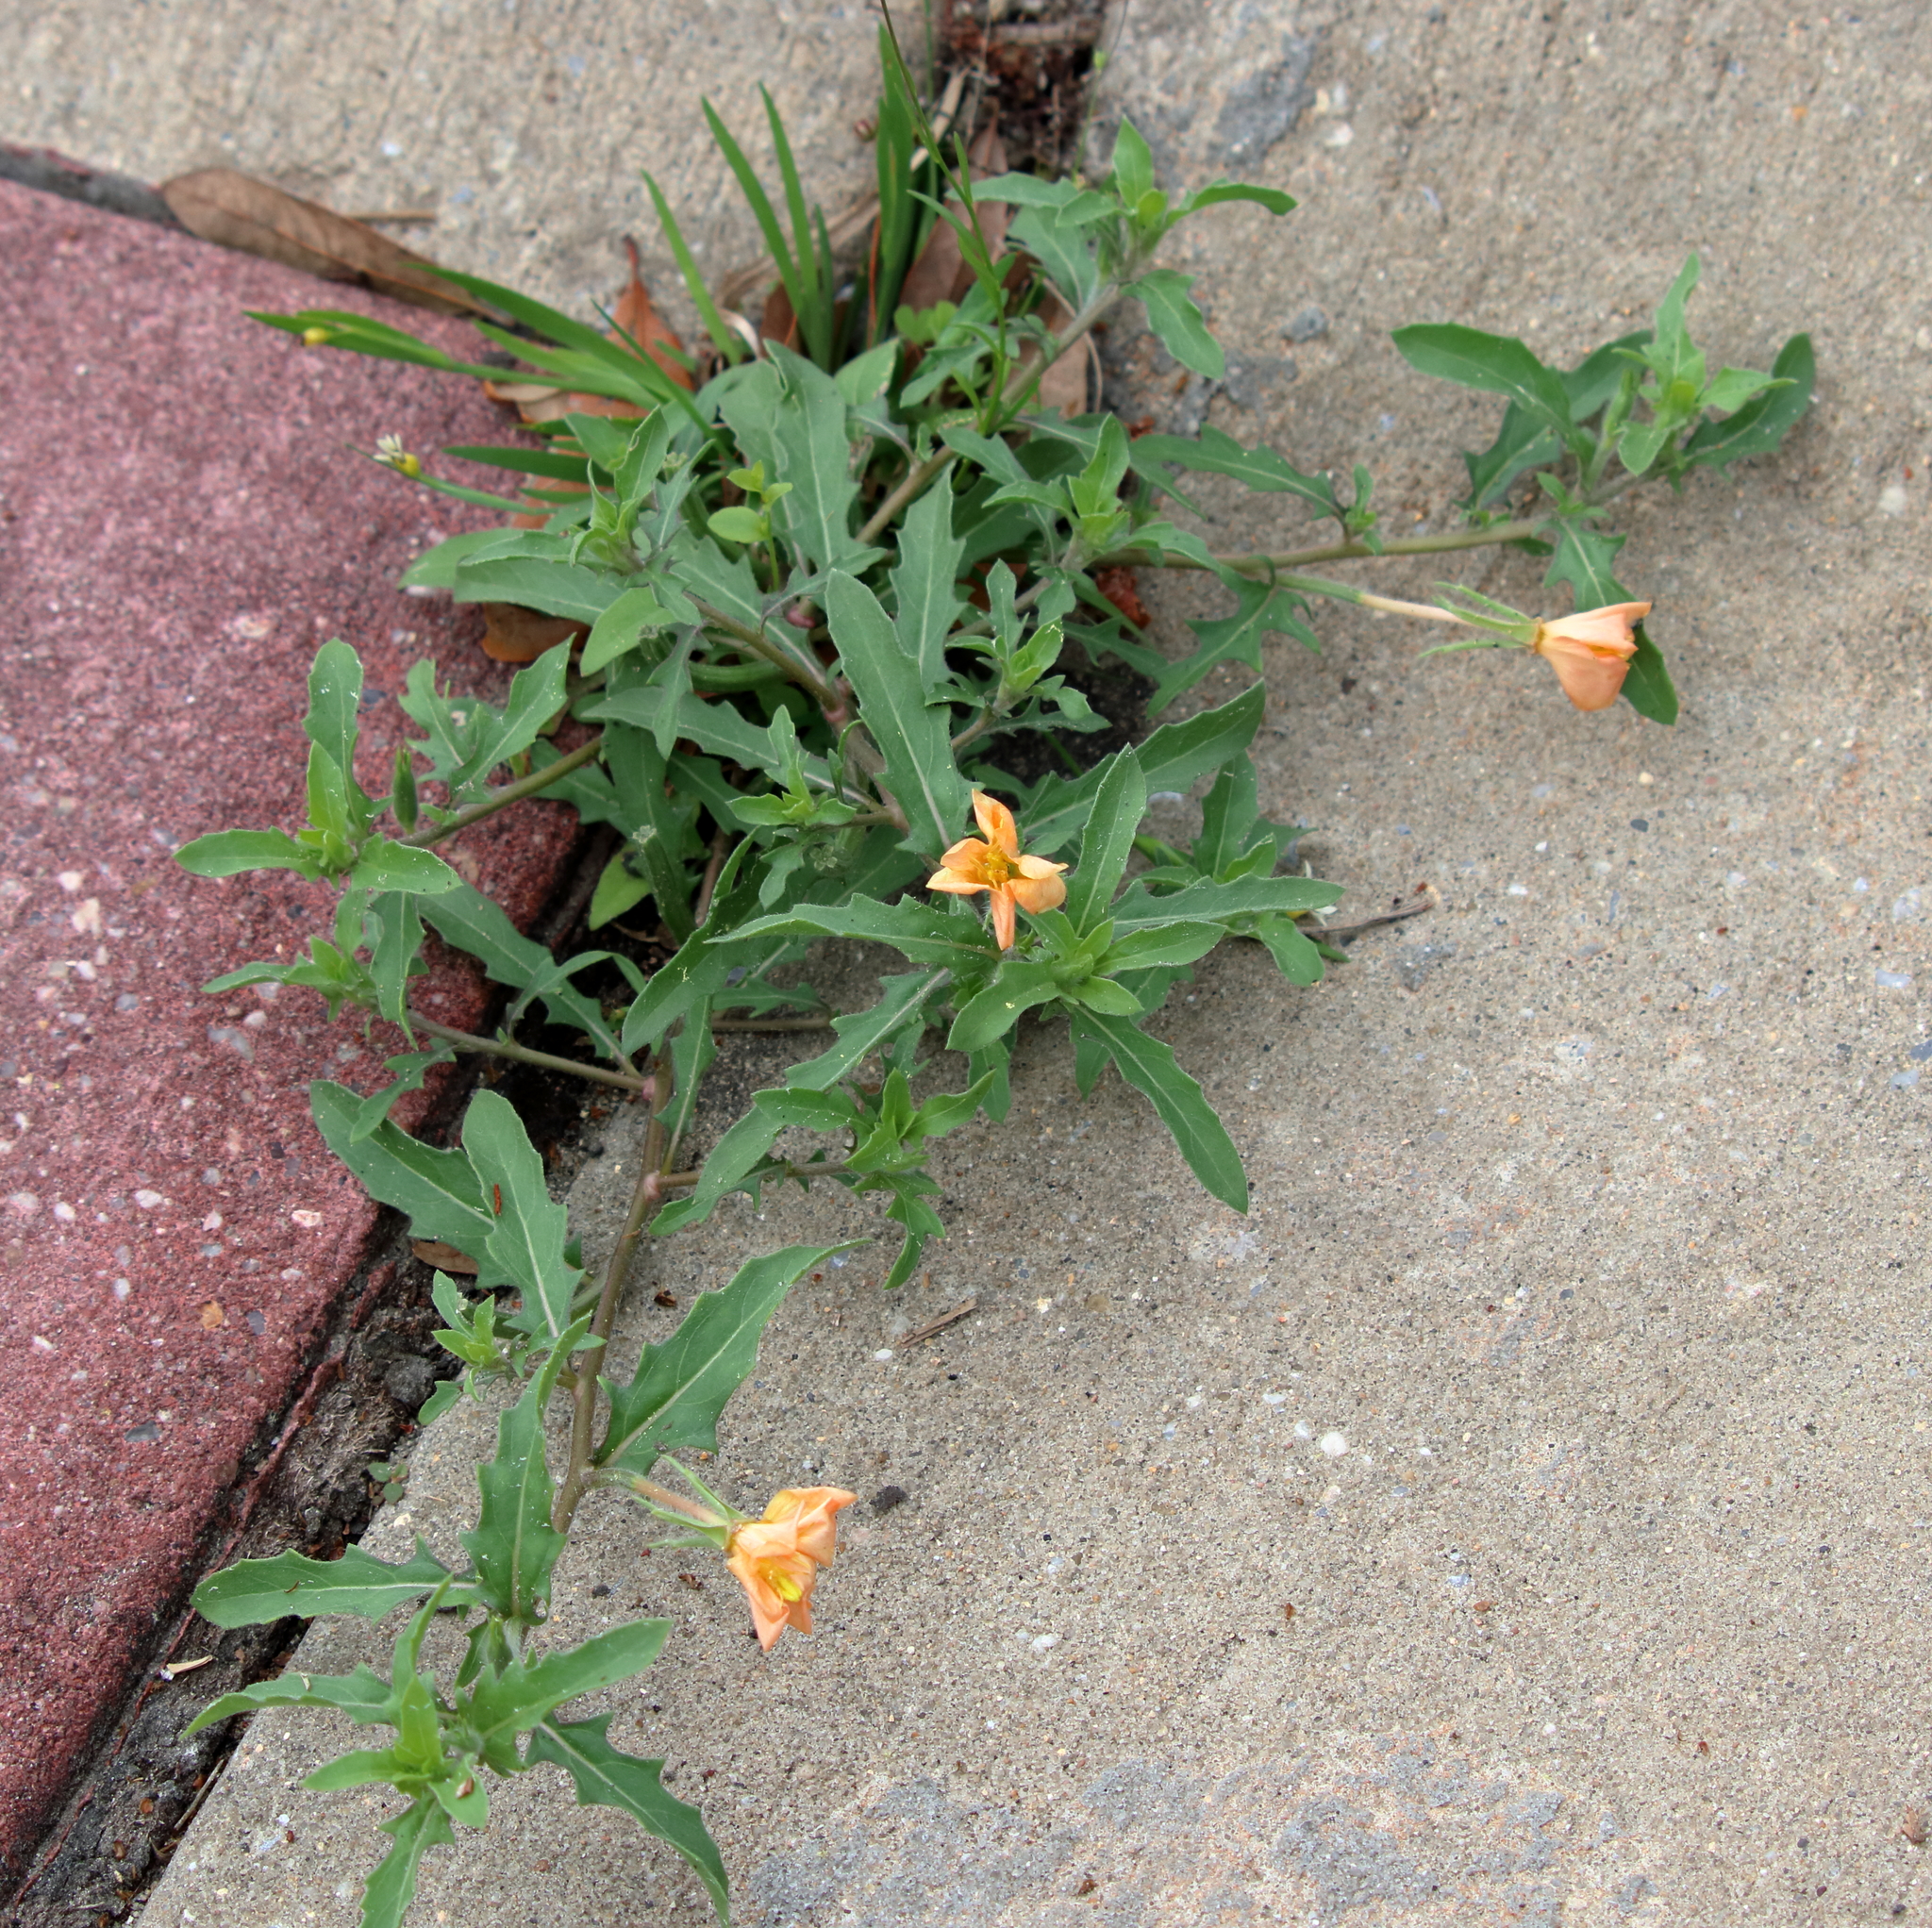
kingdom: Plantae
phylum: Tracheophyta
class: Magnoliopsida
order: Myrtales
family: Onagraceae
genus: Oenothera
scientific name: Oenothera laciniata
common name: Cut-leaved evening-primrose
